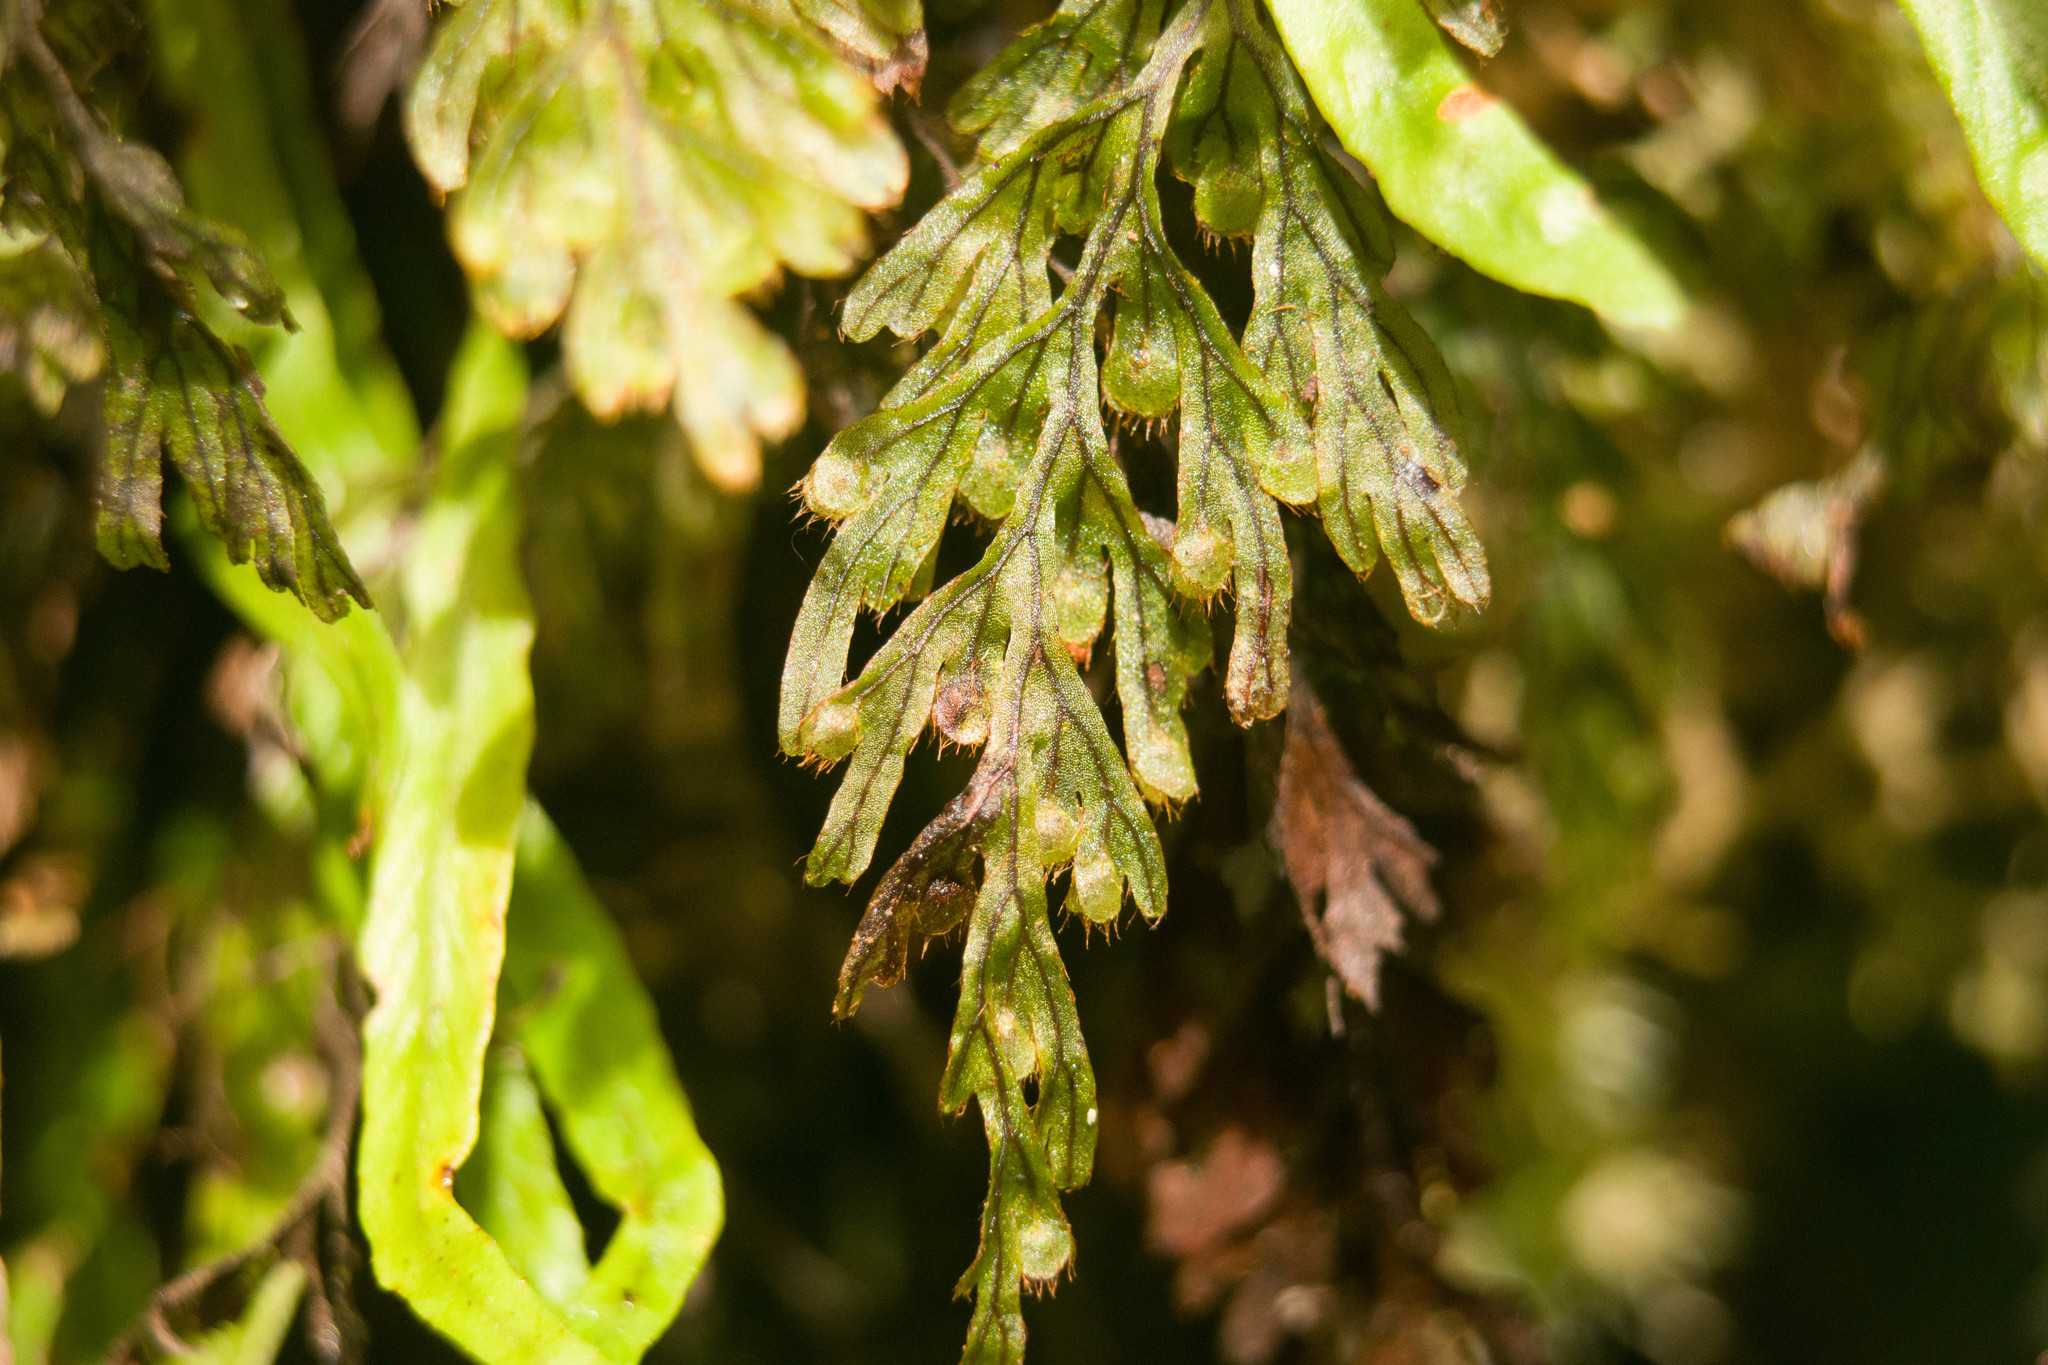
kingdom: Plantae
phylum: Tracheophyta
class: Polypodiopsida
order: Hymenophyllales
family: Hymenophyllaceae
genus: Hymenophyllum
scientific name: Hymenophyllum lanceolatum
